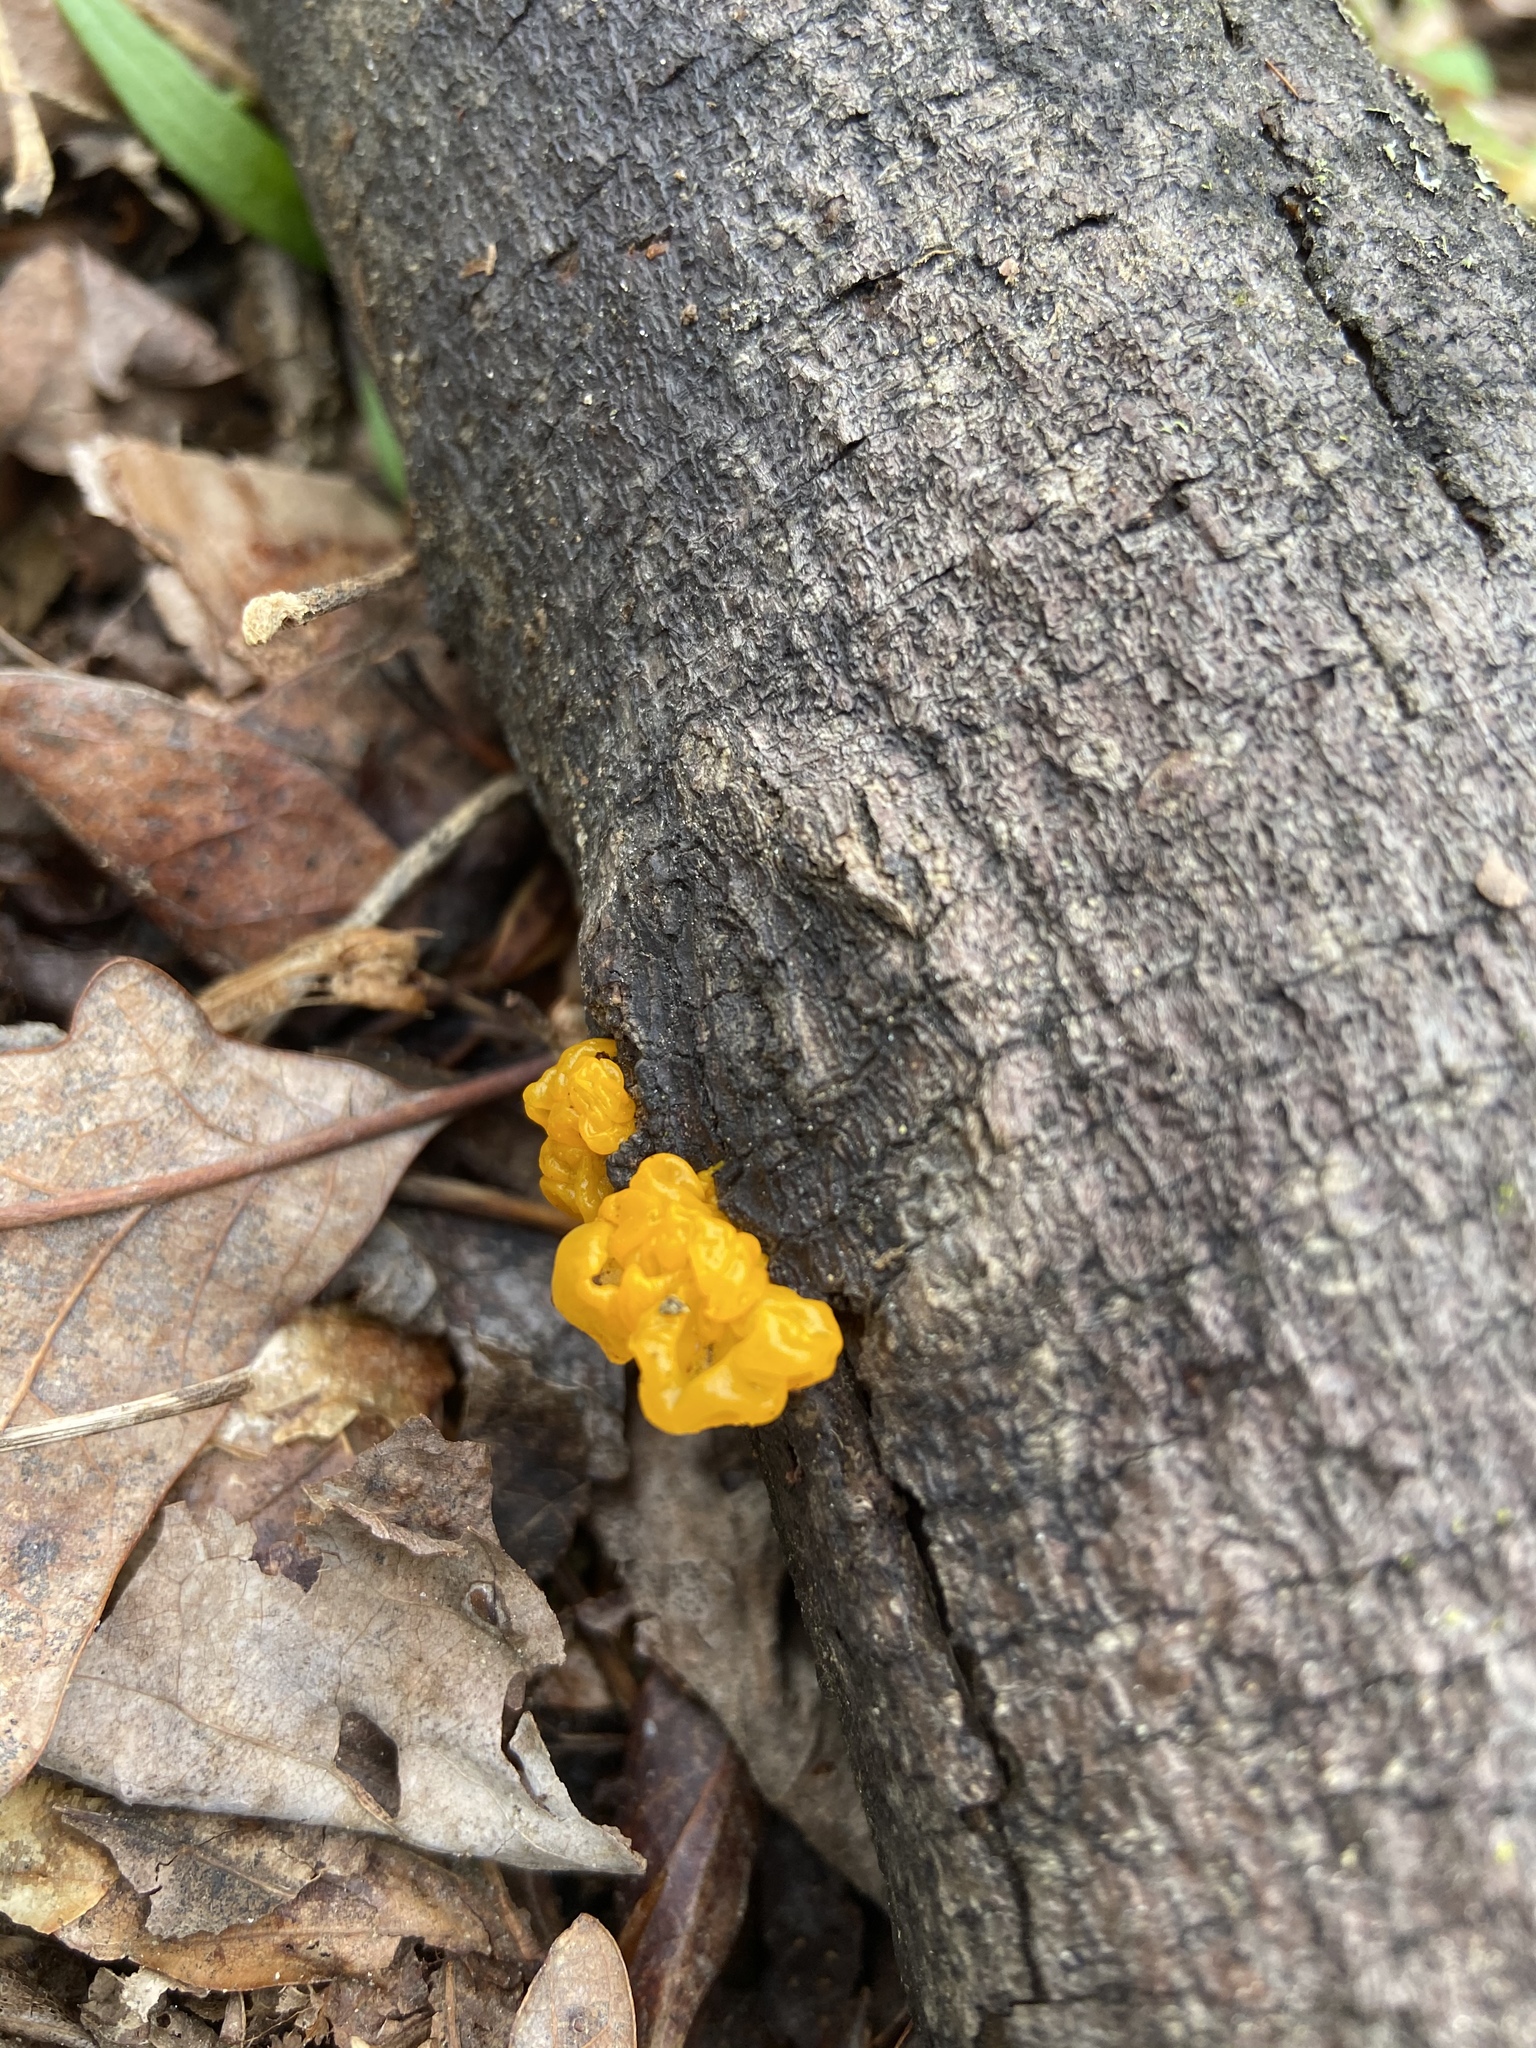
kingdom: Fungi
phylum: Basidiomycota
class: Tremellomycetes
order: Tremellales
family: Tremellaceae
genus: Tremella
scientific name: Tremella mesenterica
